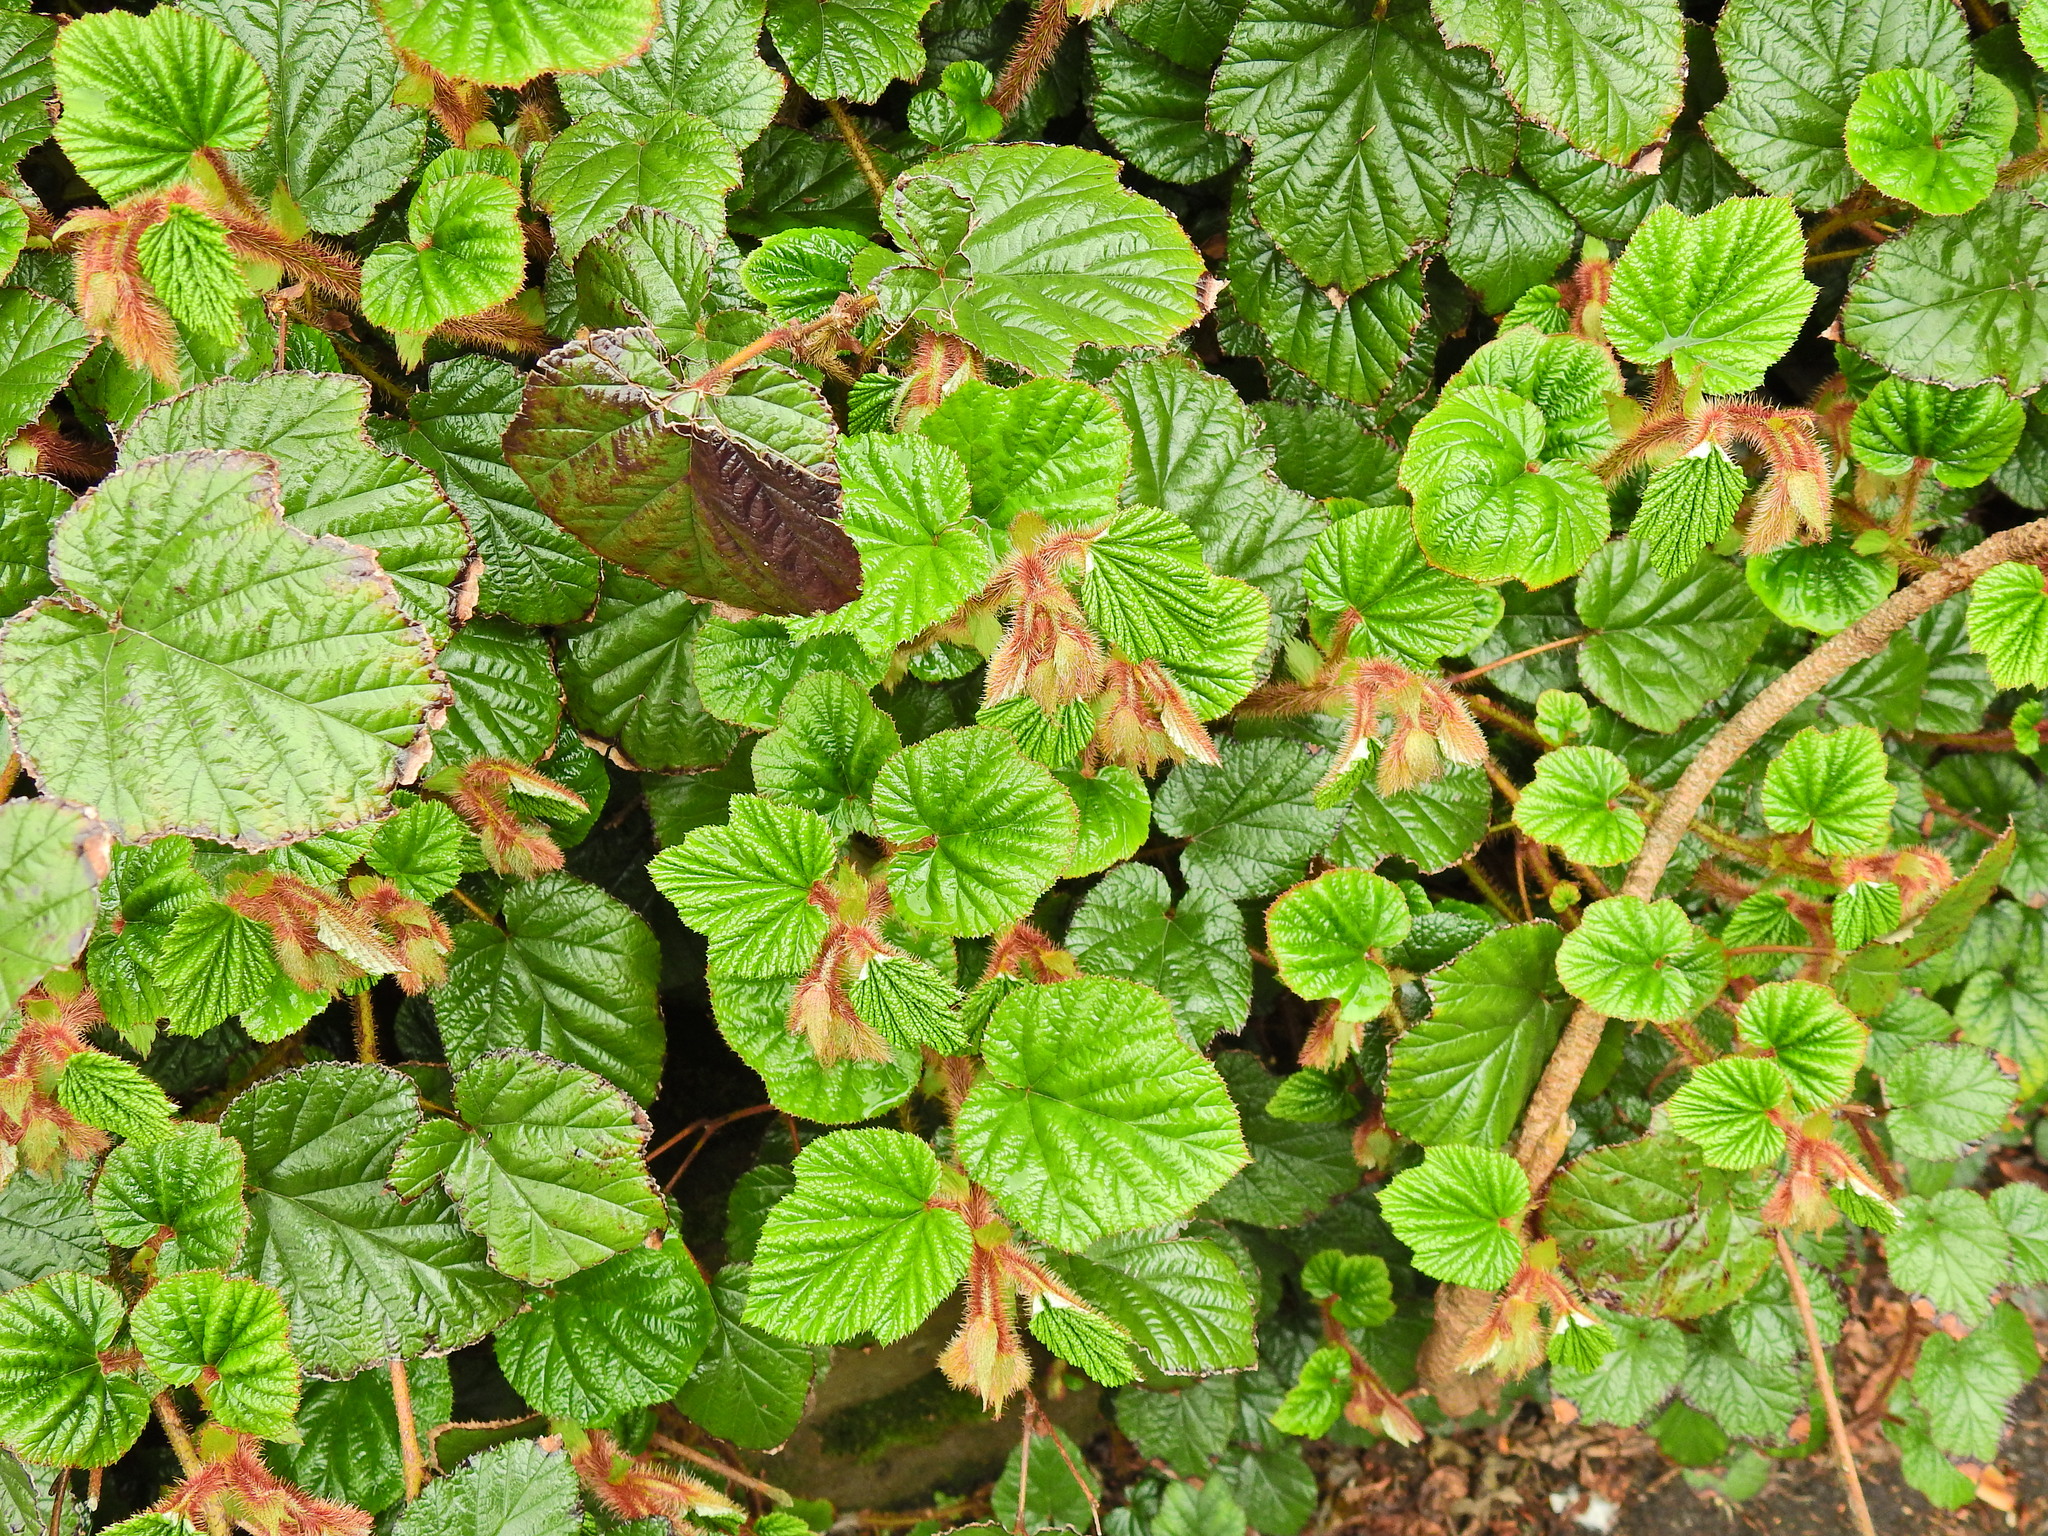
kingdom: Plantae
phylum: Tracheophyta
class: Magnoliopsida
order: Rosales
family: Rosaceae
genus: Rubus
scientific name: Rubus tricolor
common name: Chinese bramble
